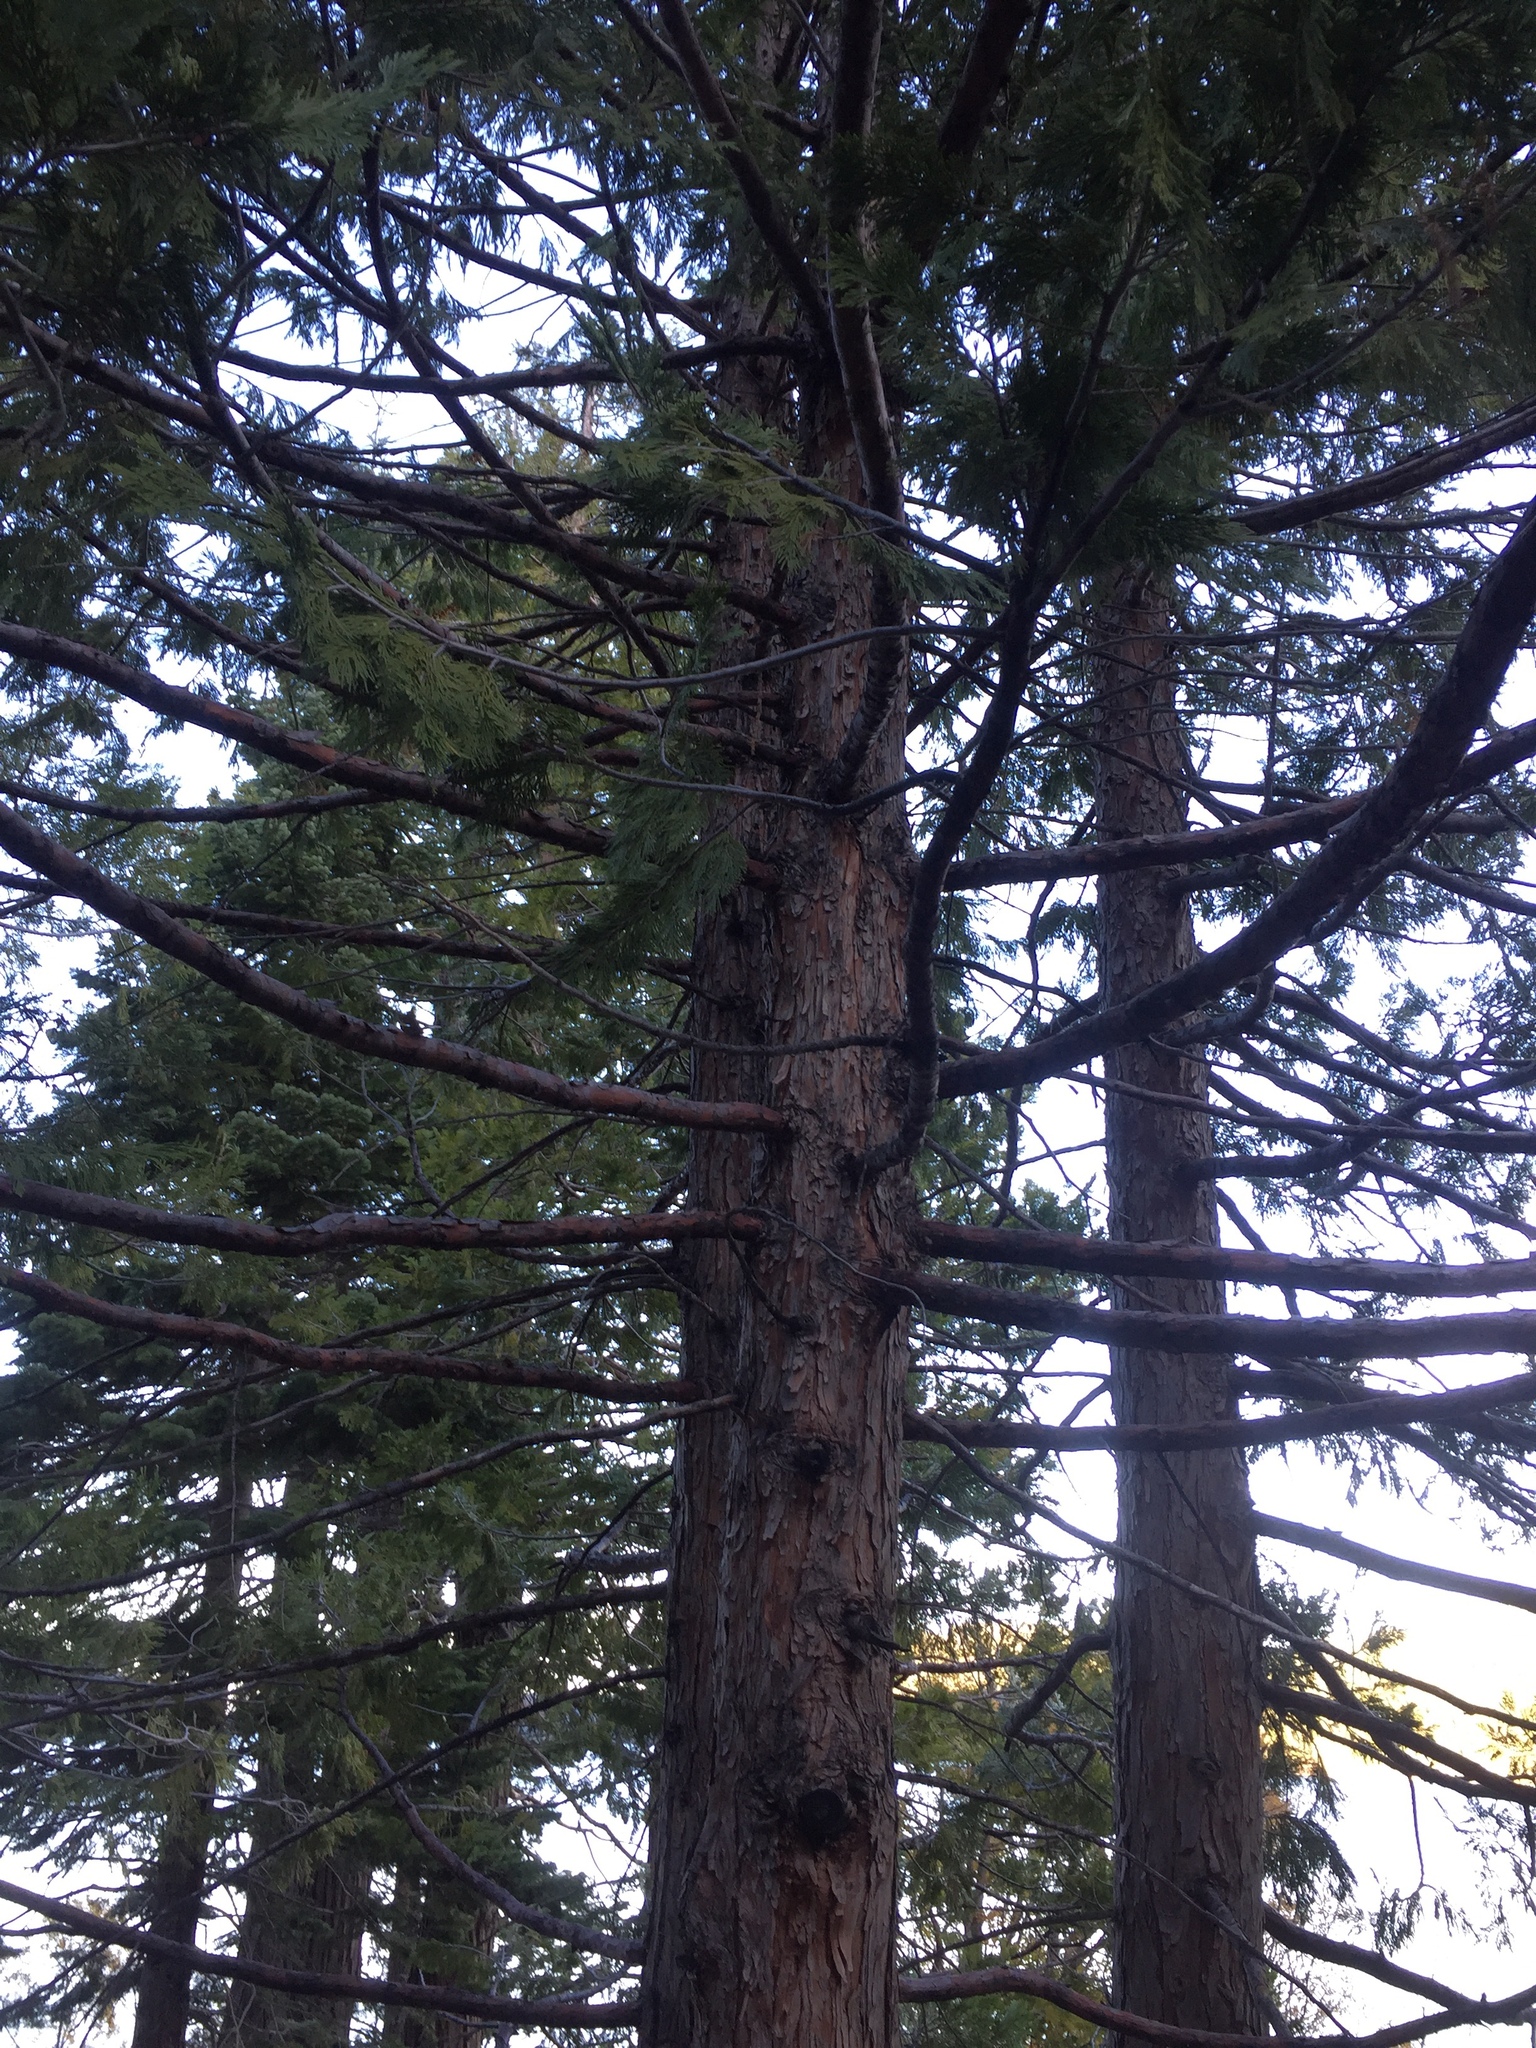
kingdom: Plantae
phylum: Tracheophyta
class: Pinopsida
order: Pinales
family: Cupressaceae
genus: Calocedrus
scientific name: Calocedrus decurrens
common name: Californian incense-cedar
